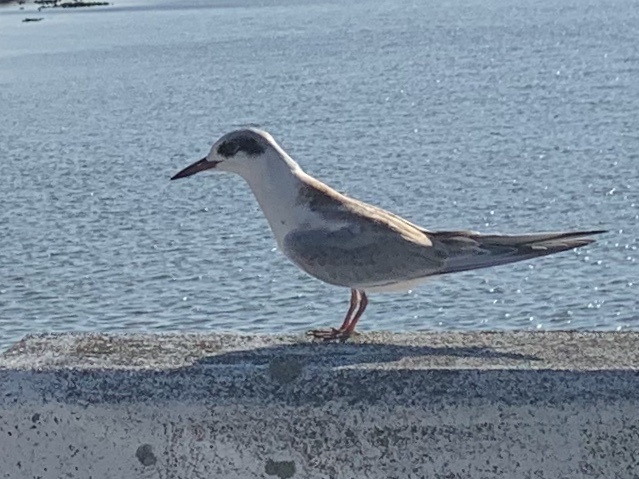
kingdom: Animalia
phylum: Chordata
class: Aves
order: Charadriiformes
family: Laridae
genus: Sterna
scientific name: Sterna forsteri
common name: Forster's tern
